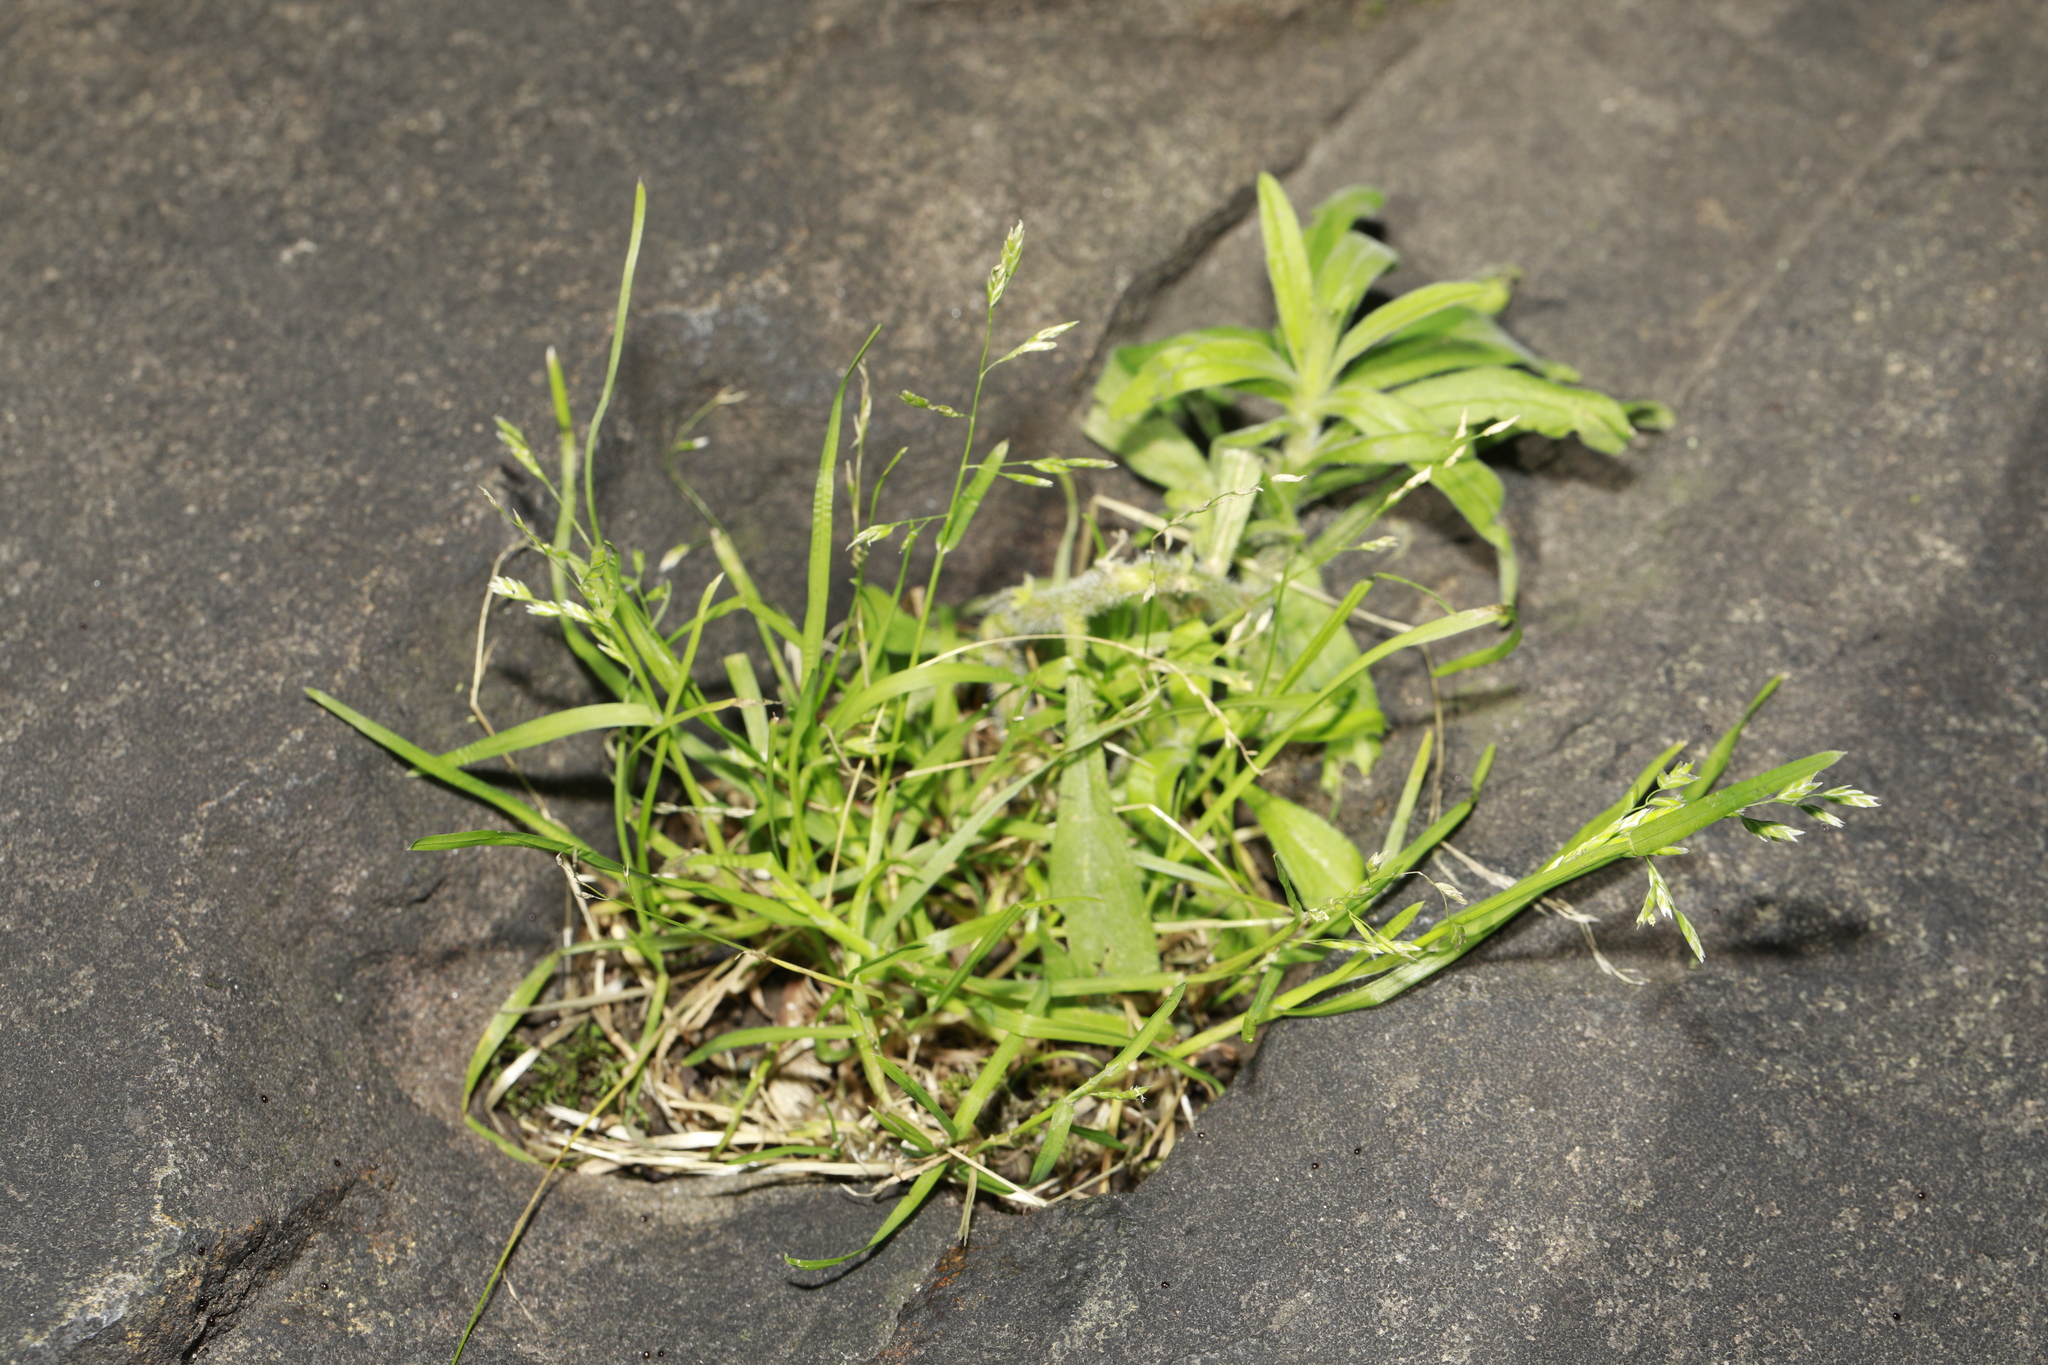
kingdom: Plantae
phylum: Tracheophyta
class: Liliopsida
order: Poales
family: Poaceae
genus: Poa
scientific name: Poa annua
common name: Annual bluegrass
